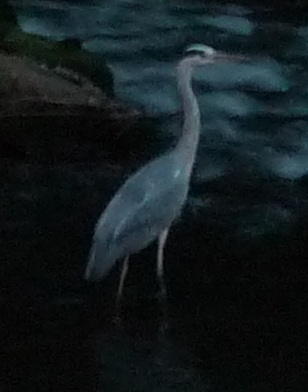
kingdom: Animalia
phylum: Chordata
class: Aves
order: Pelecaniformes
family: Ardeidae
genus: Ardea
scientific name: Ardea cinerea
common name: Grey heron
